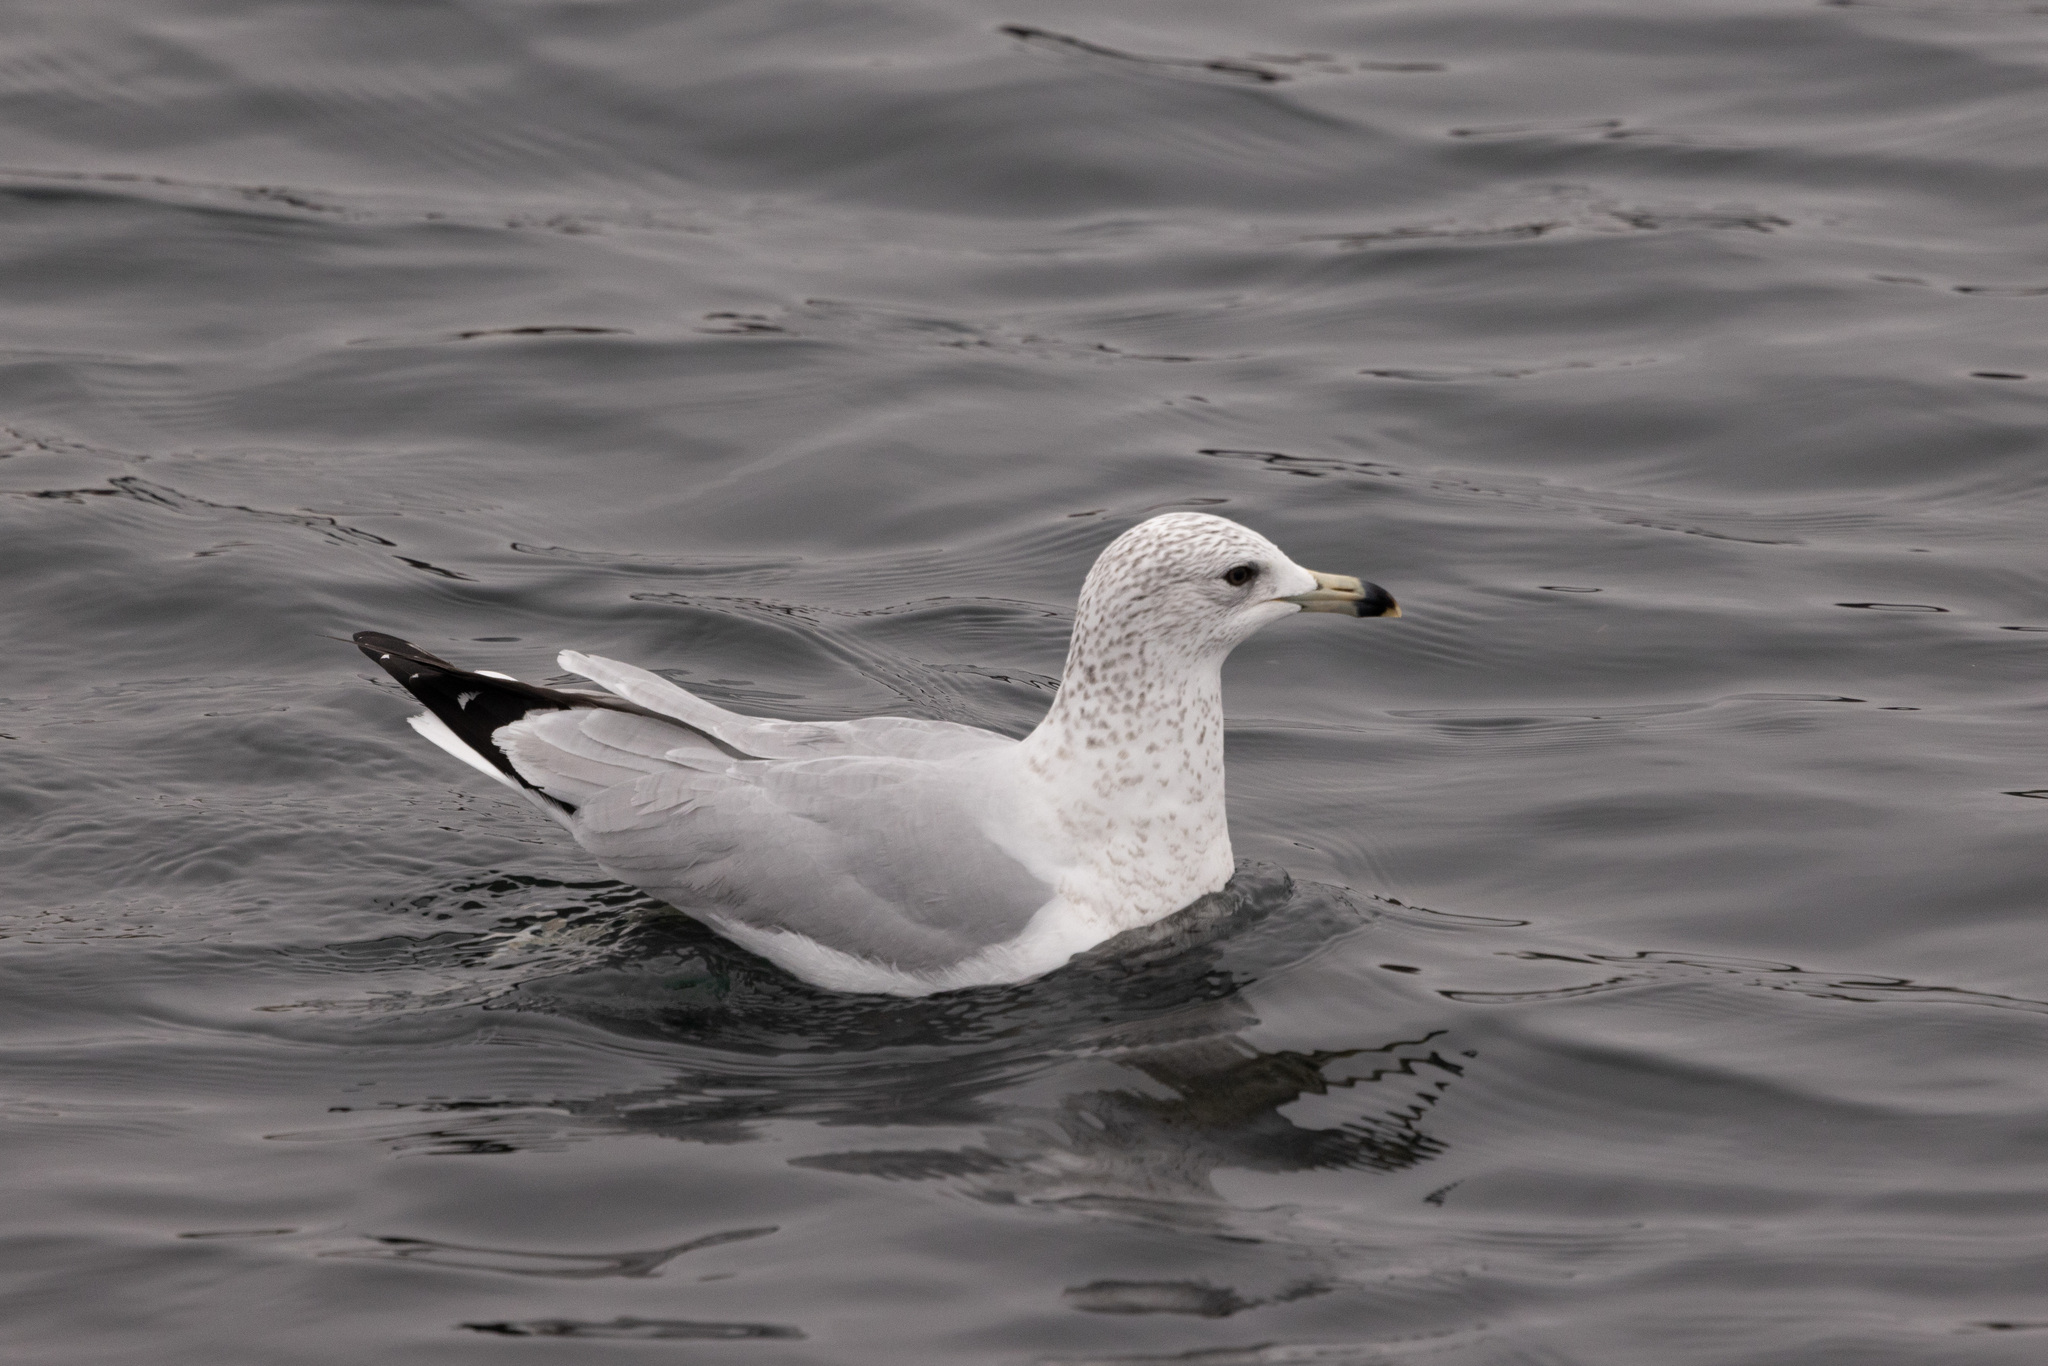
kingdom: Animalia
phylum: Chordata
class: Aves
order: Charadriiformes
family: Laridae
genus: Larus
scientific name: Larus delawarensis
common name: Ring-billed gull
